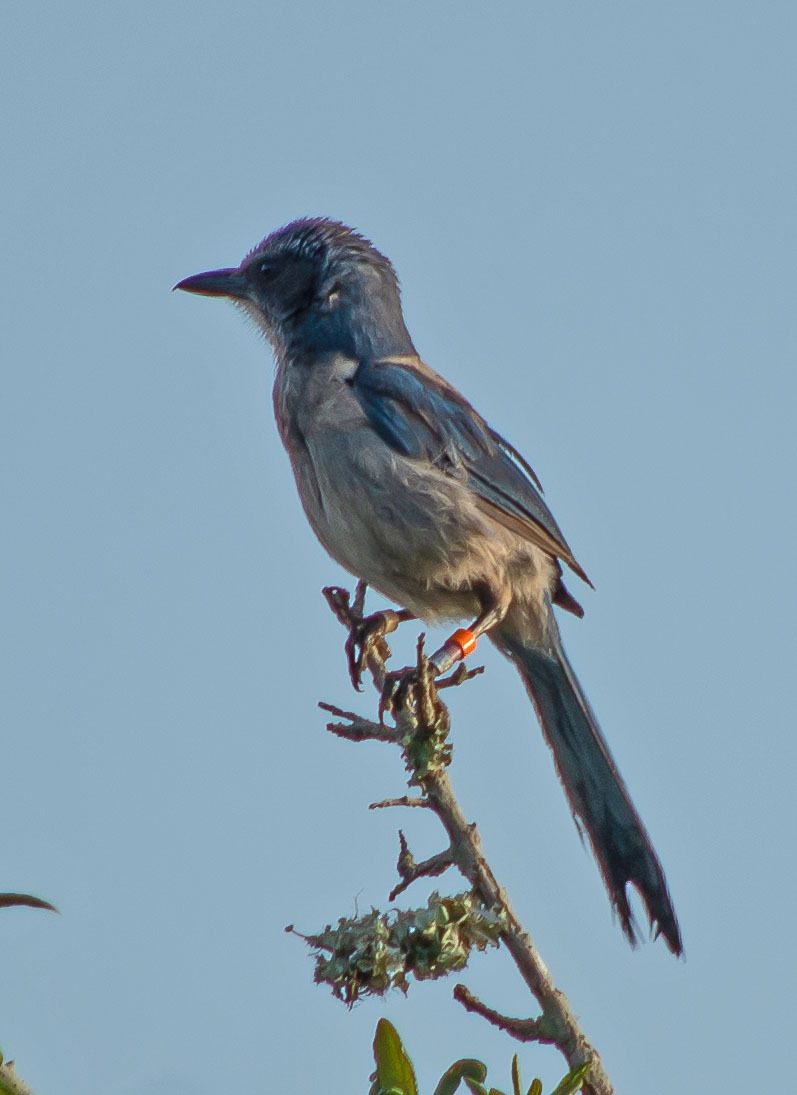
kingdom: Animalia
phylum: Chordata
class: Aves
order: Passeriformes
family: Corvidae
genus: Aphelocoma
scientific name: Aphelocoma coerulescens
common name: Florida scrub jay
